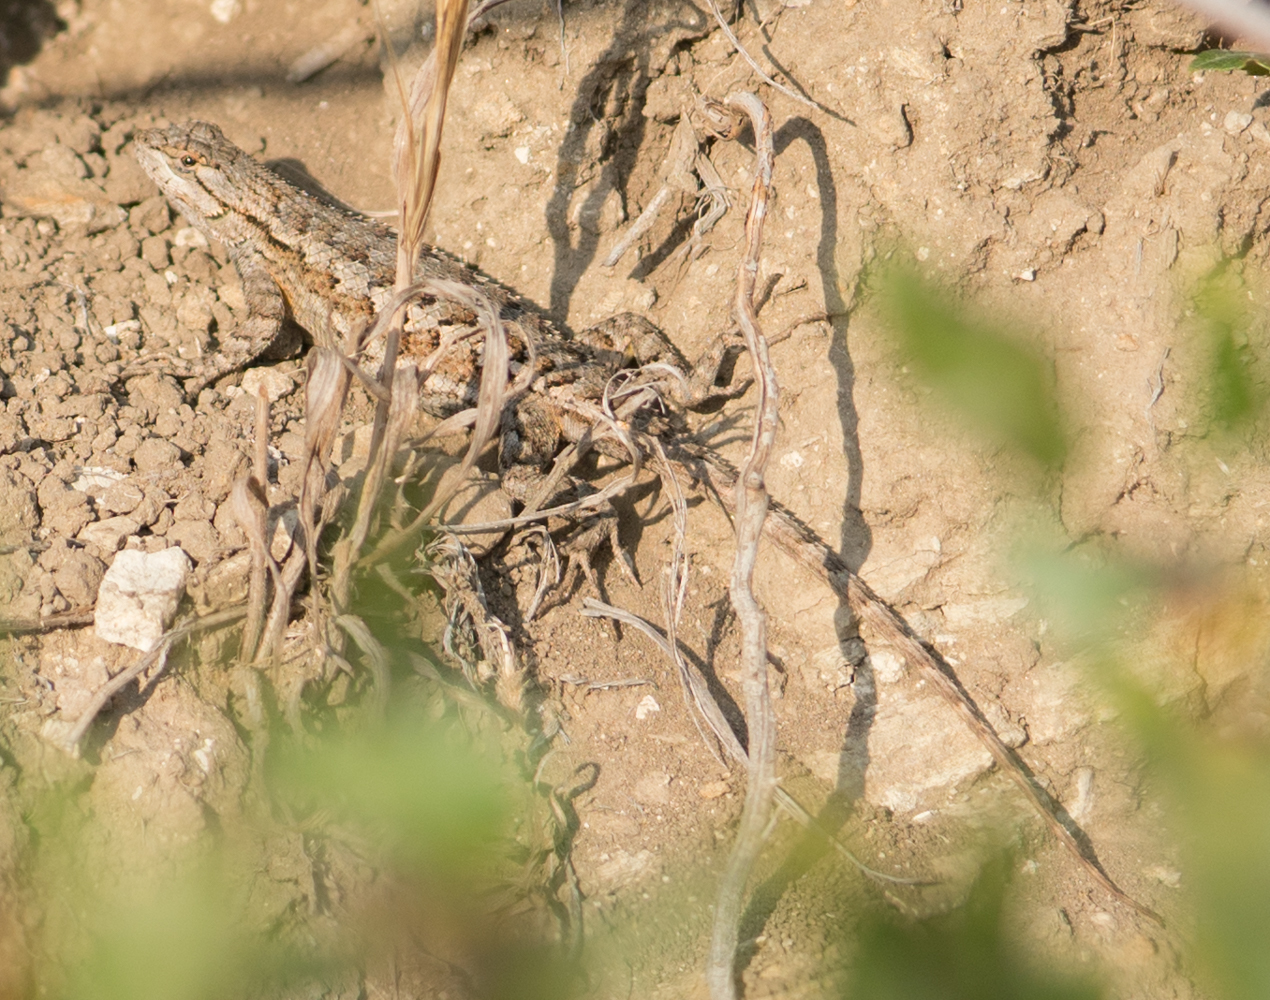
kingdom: Animalia
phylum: Chordata
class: Squamata
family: Phrynosomatidae
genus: Sceloporus
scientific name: Sceloporus occidentalis
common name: Western fence lizard
